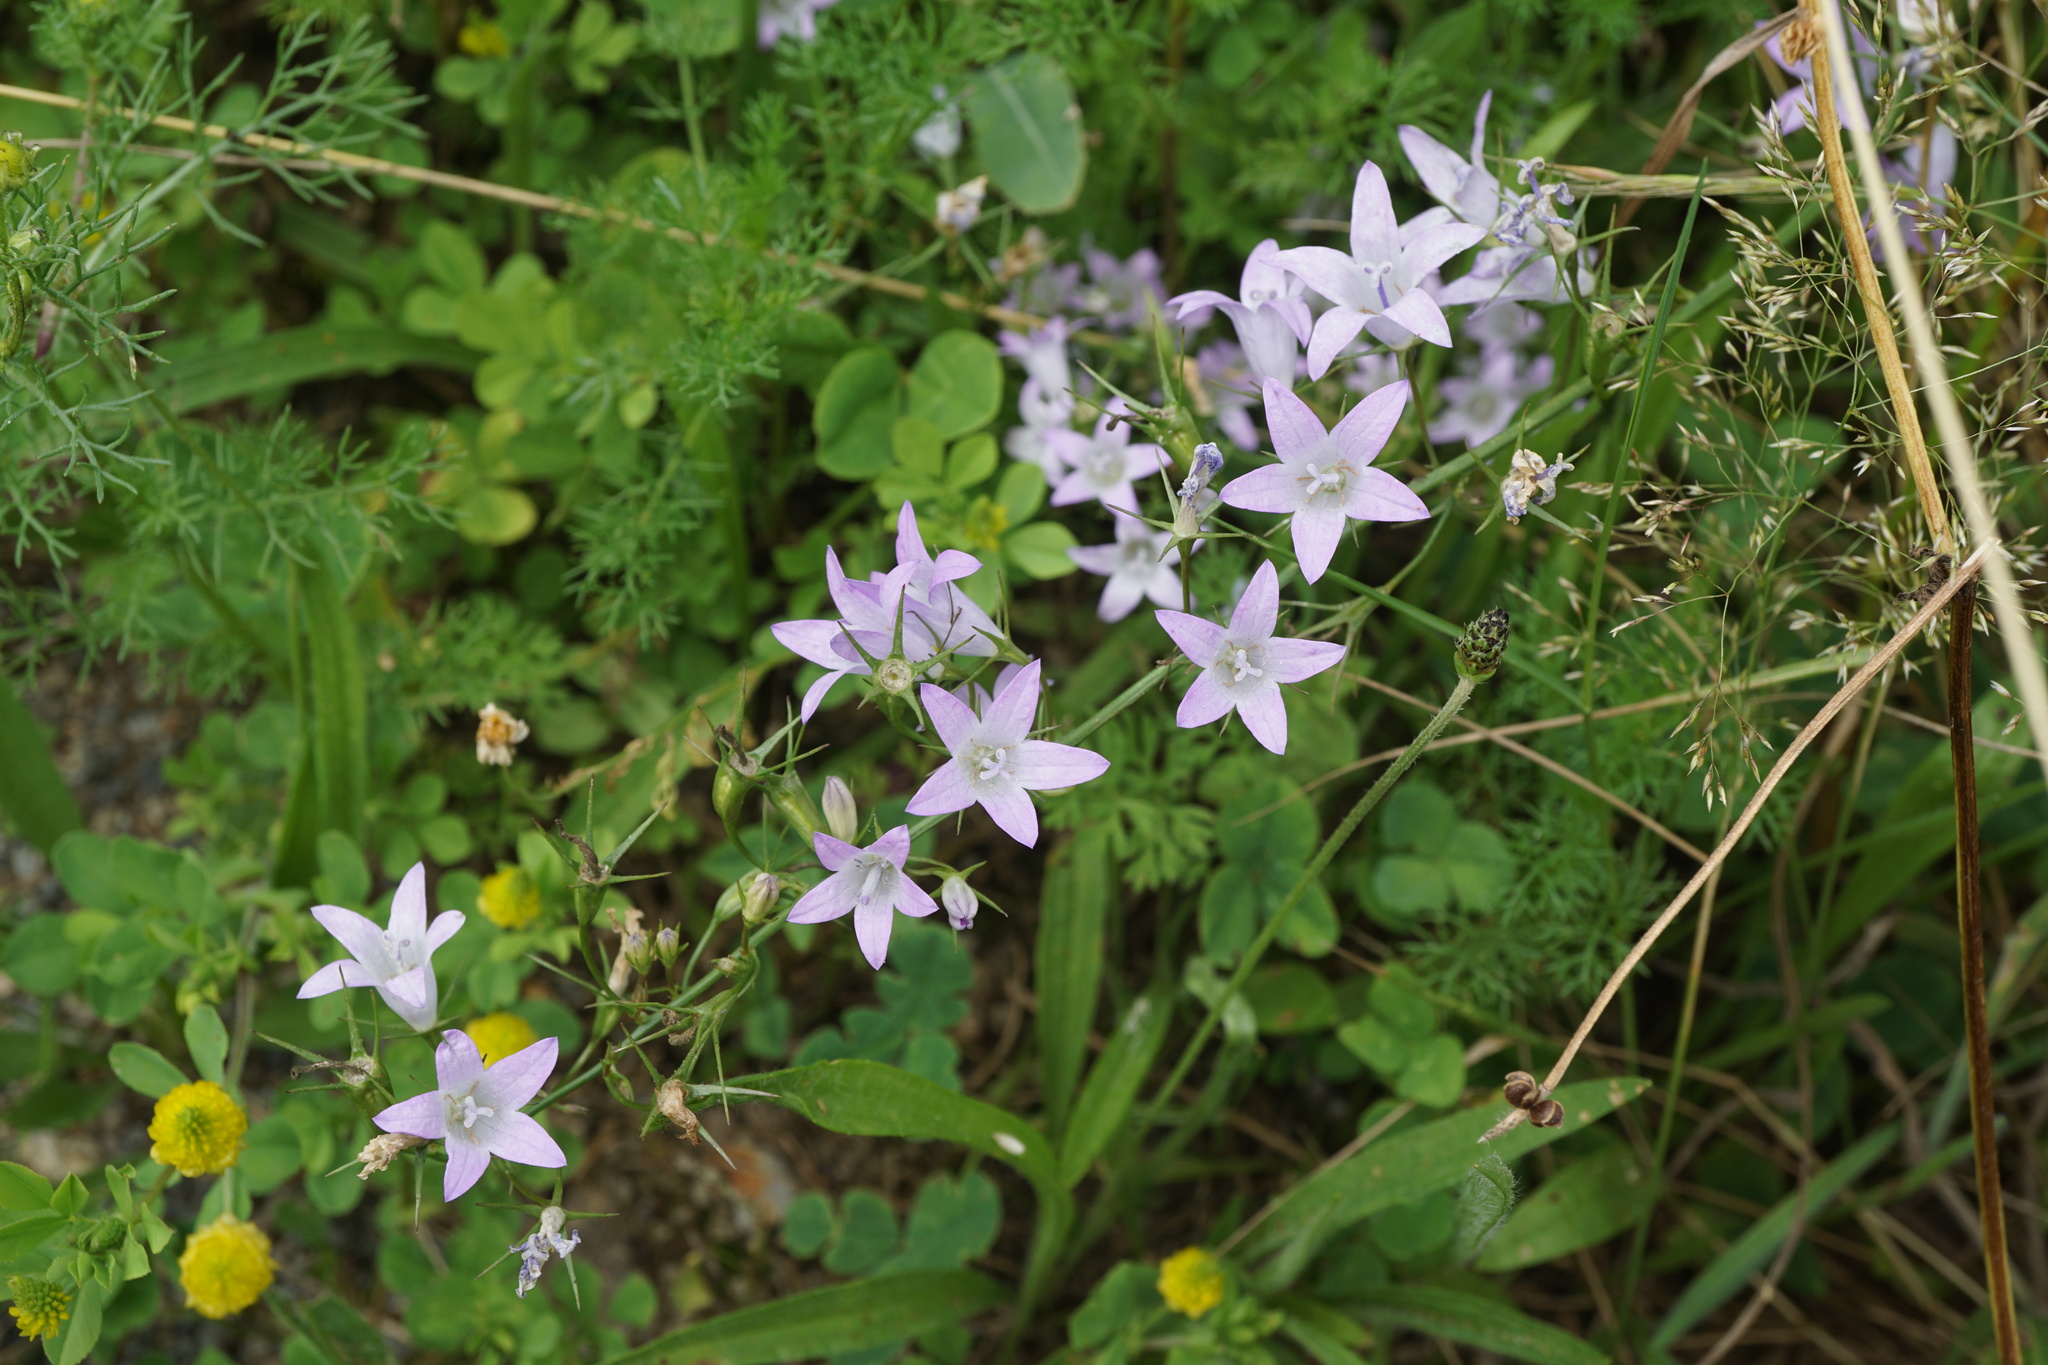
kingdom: Plantae
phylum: Tracheophyta
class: Magnoliopsida
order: Asterales
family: Campanulaceae
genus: Campanula
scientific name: Campanula rapunculus
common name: Rampion bellflower
